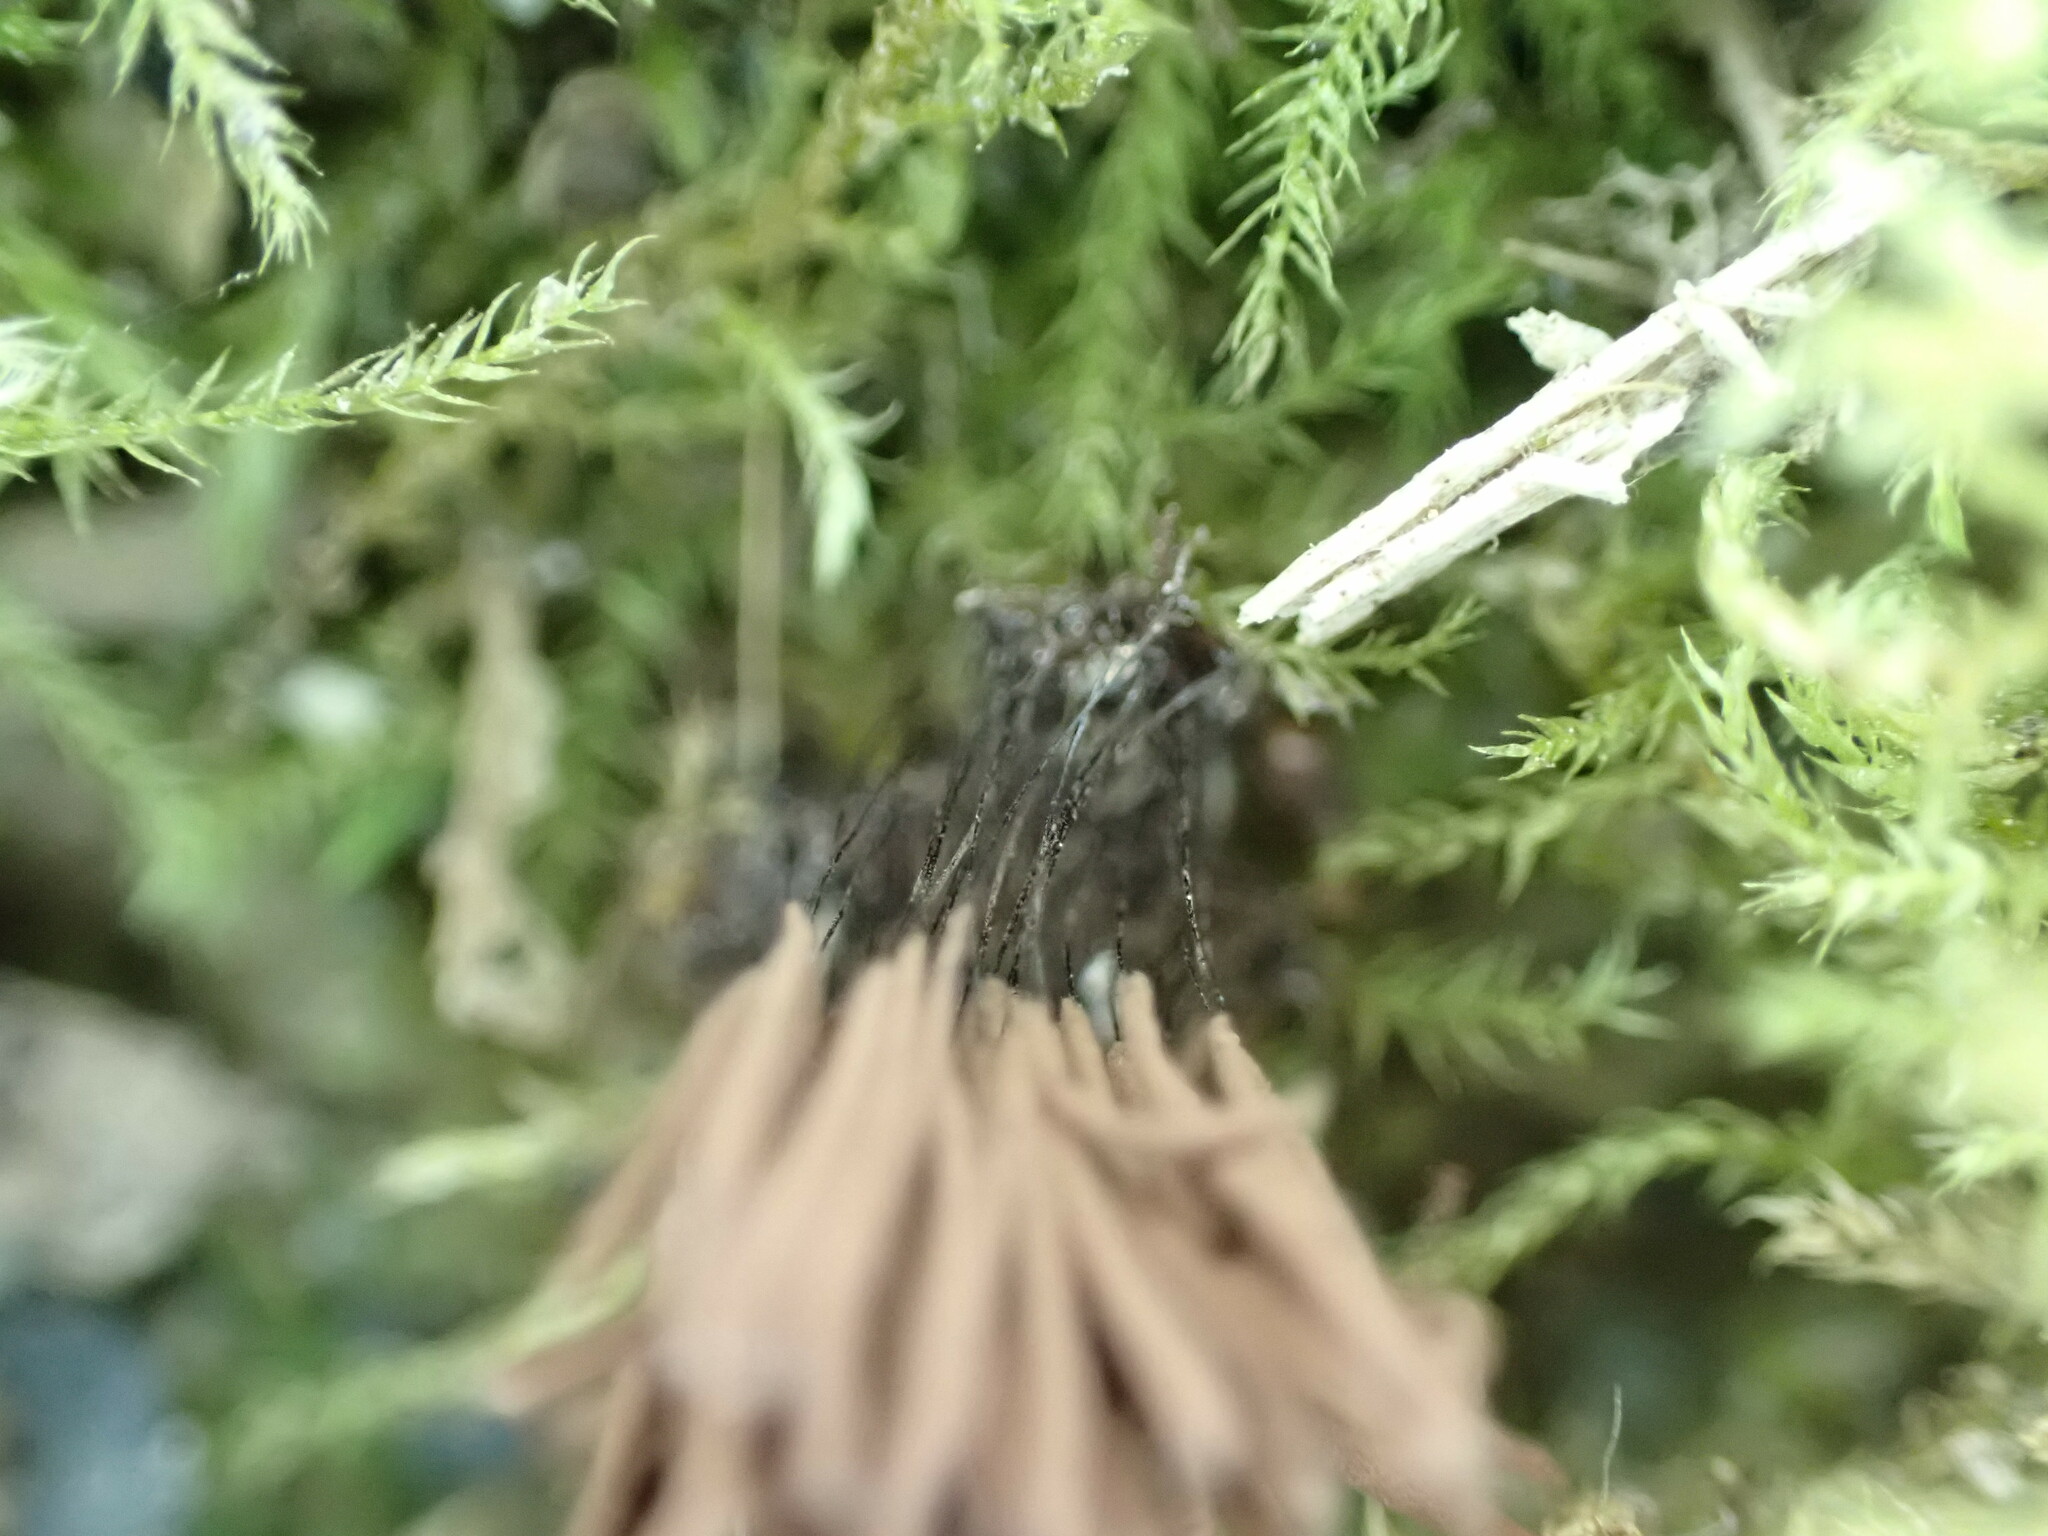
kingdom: Protozoa
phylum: Mycetozoa
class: Myxomycetes
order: Stemonitidales
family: Stemonitidaceae
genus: Stemonitis
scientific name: Stemonitis splendens
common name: Chocolate tube slime
